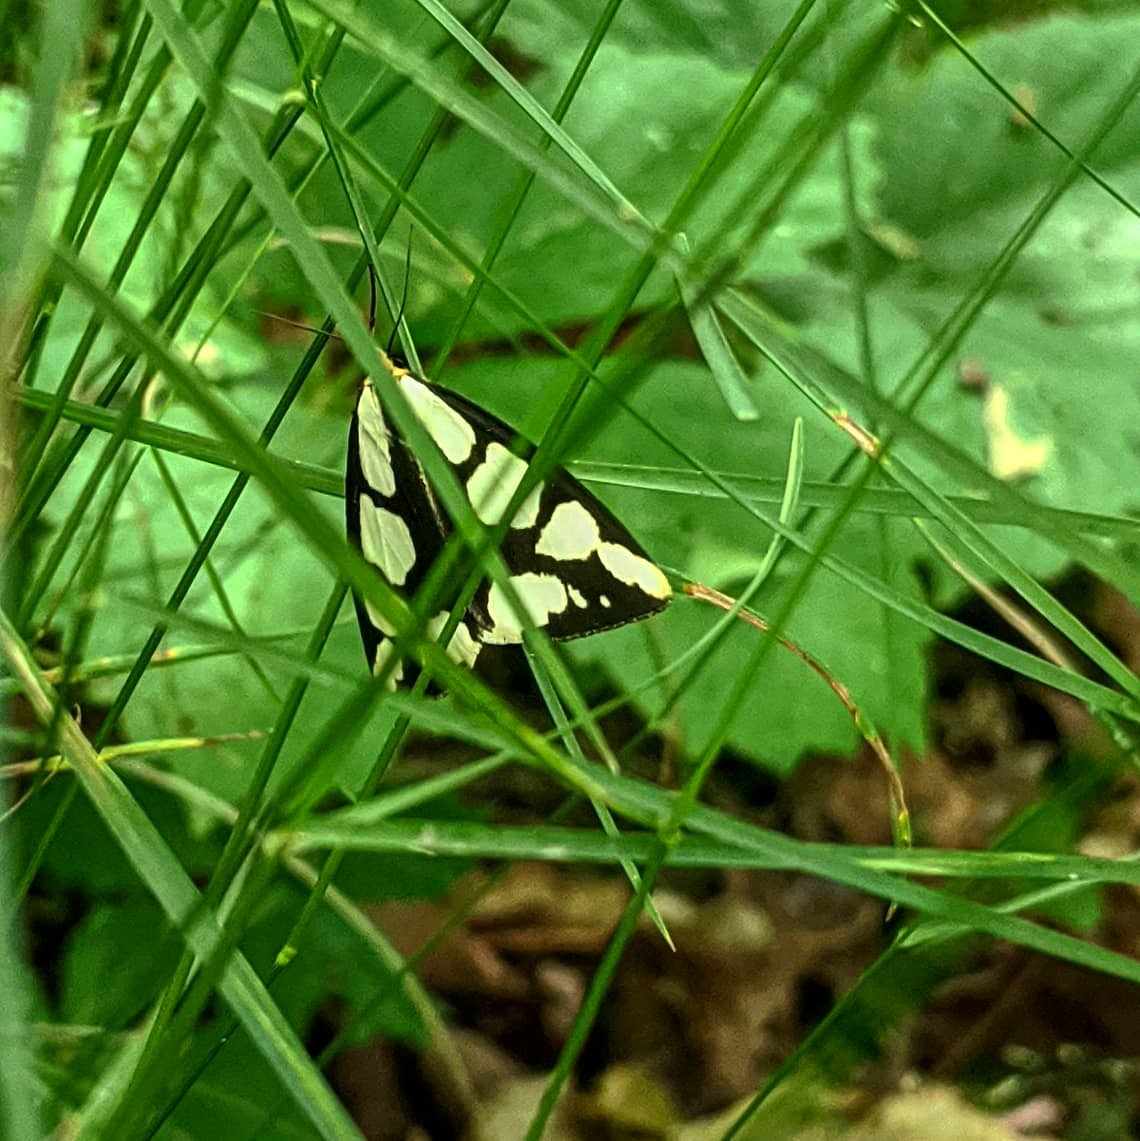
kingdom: Animalia
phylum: Arthropoda
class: Insecta
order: Lepidoptera
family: Erebidae
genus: Haploa
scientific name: Haploa lecontei
